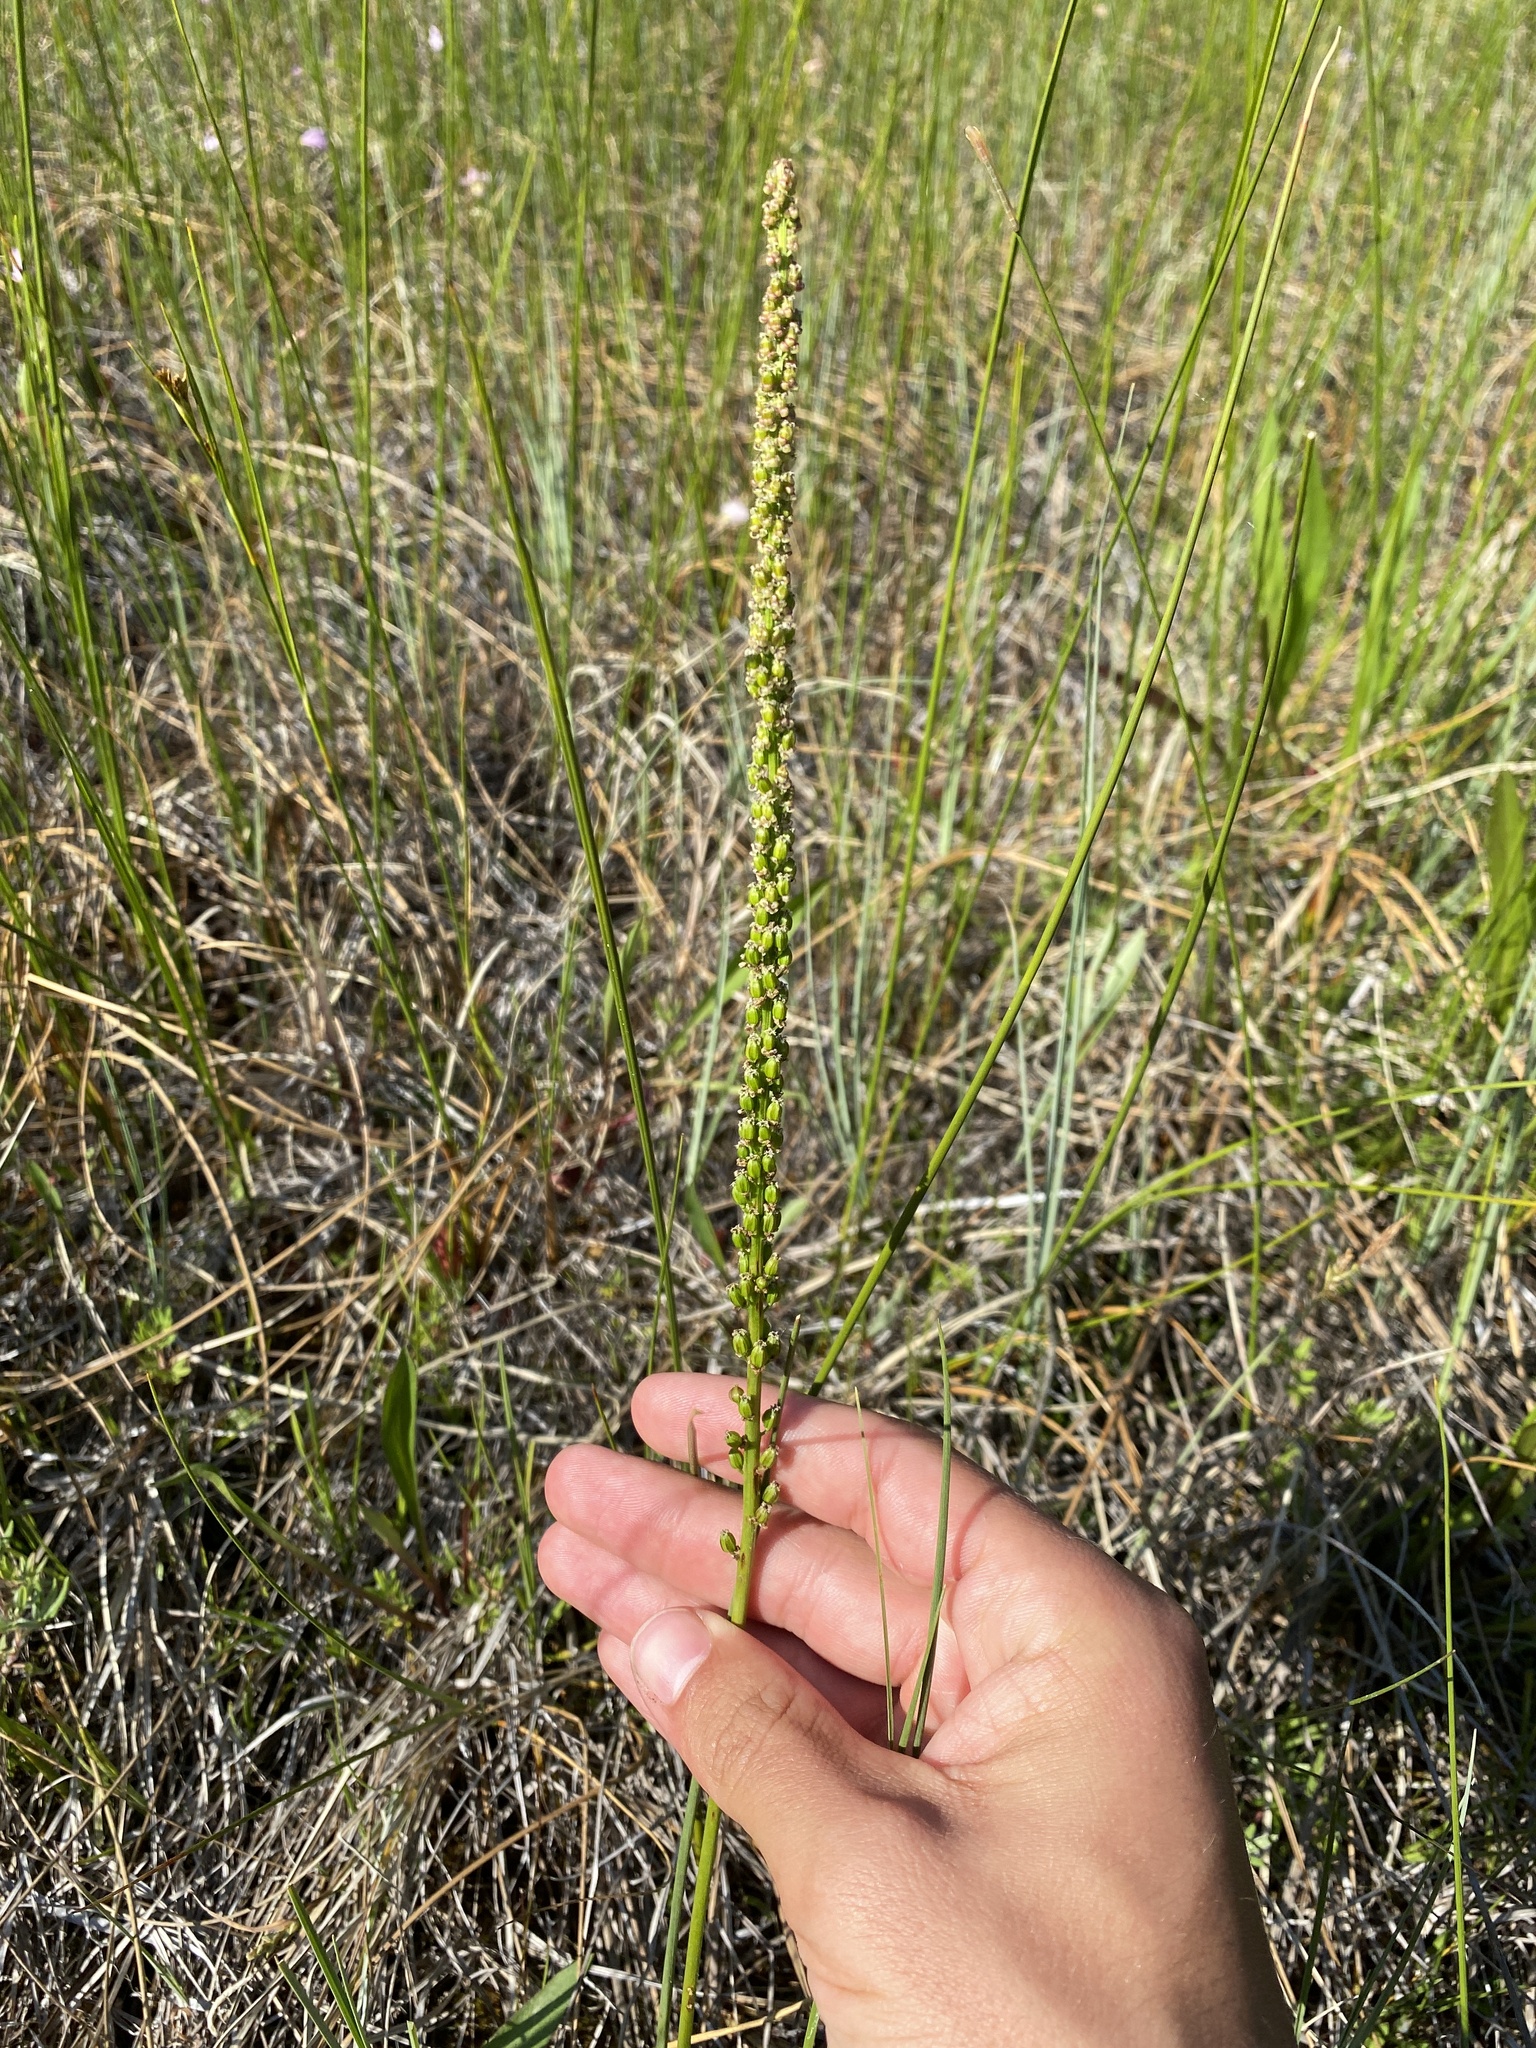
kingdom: Plantae
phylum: Tracheophyta
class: Liliopsida
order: Alismatales
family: Juncaginaceae
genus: Triglochin
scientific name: Triglochin maritima
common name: Sea arrowgrass
